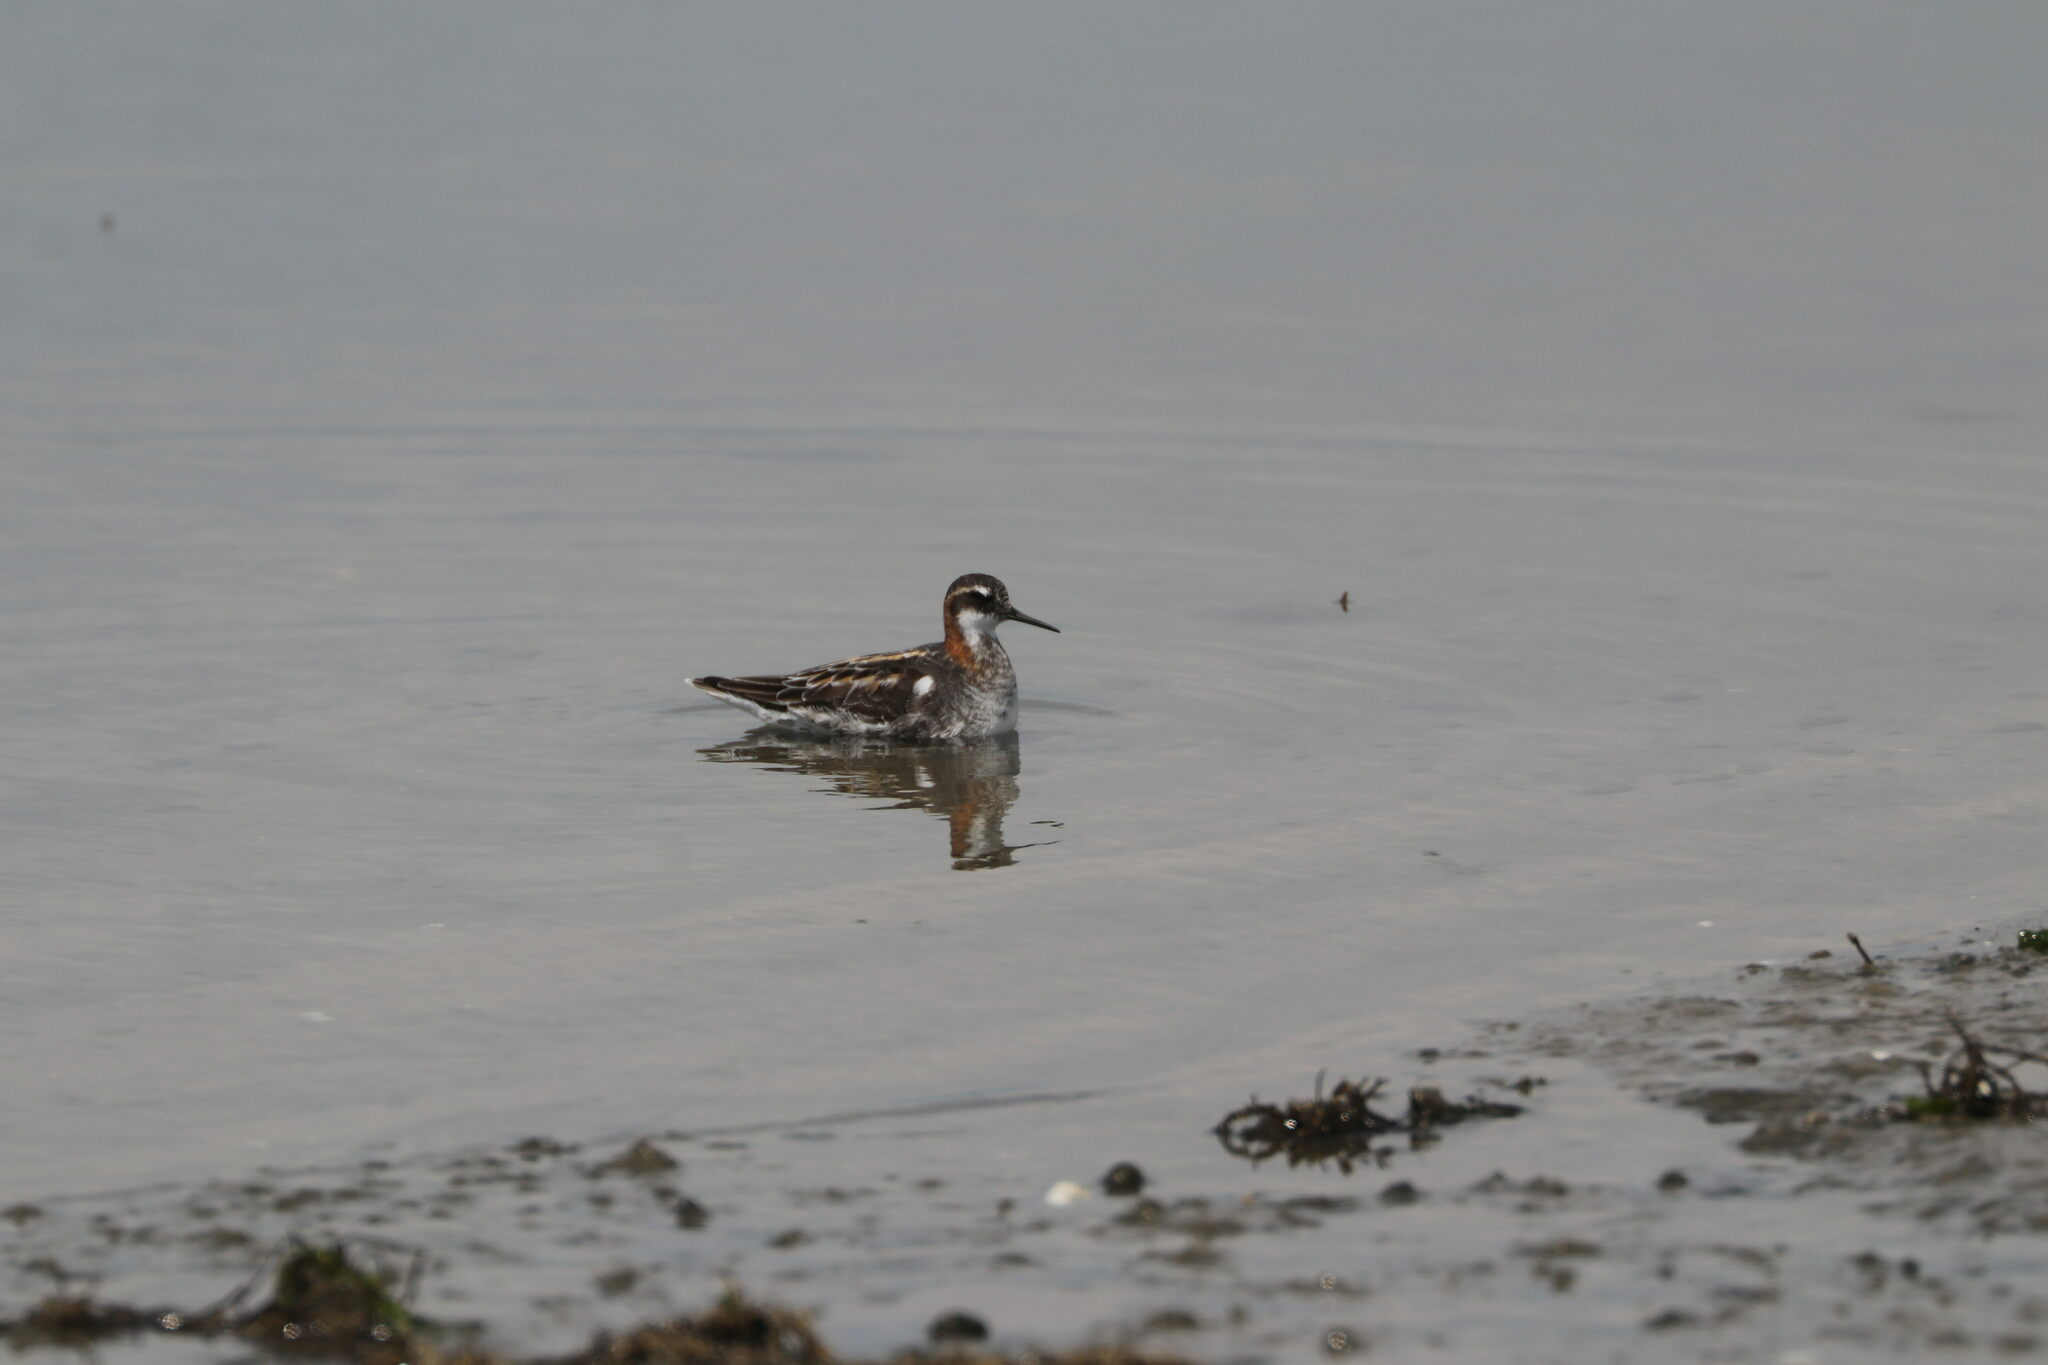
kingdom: Animalia
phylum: Chordata
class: Aves
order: Charadriiformes
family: Scolopacidae
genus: Phalaropus
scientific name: Phalaropus lobatus
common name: Red-necked phalarope
